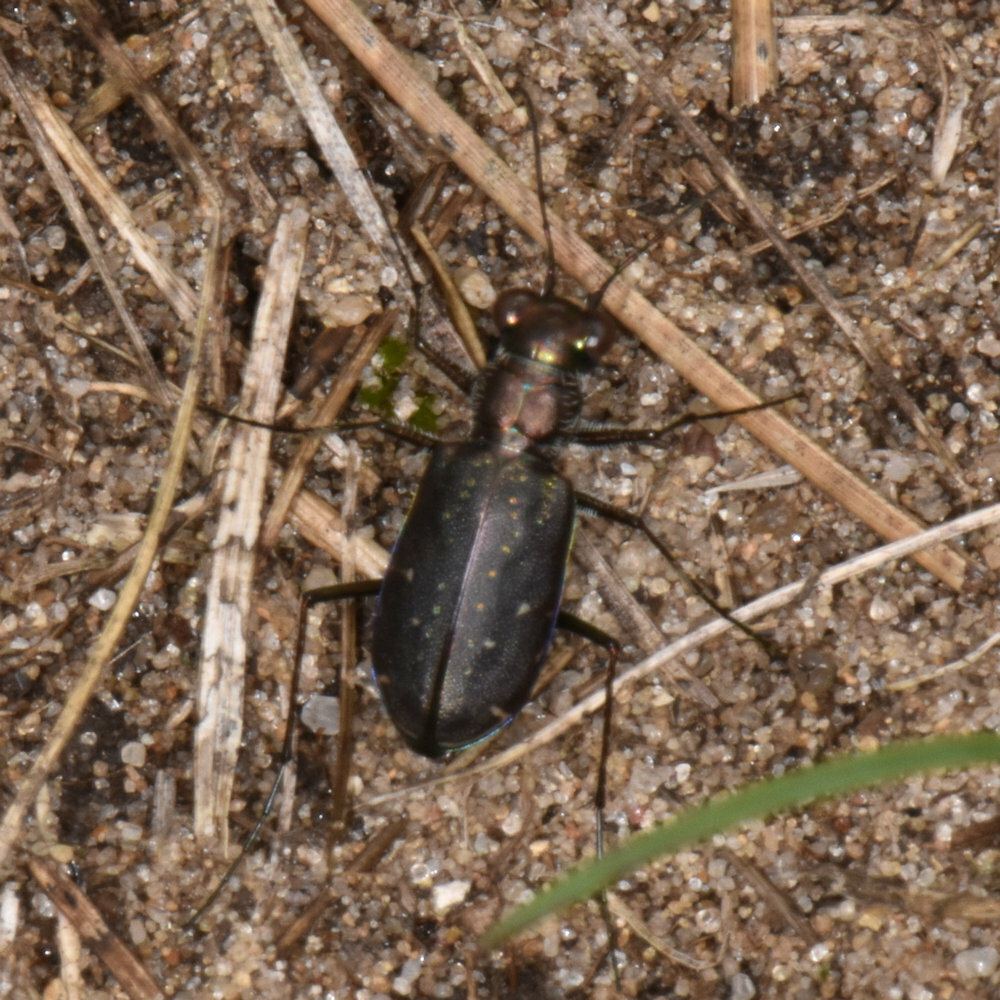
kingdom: Animalia
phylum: Arthropoda
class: Insecta
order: Coleoptera
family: Carabidae
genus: Cicindela
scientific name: Cicindela punctulata
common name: Punctured tiger beetle
